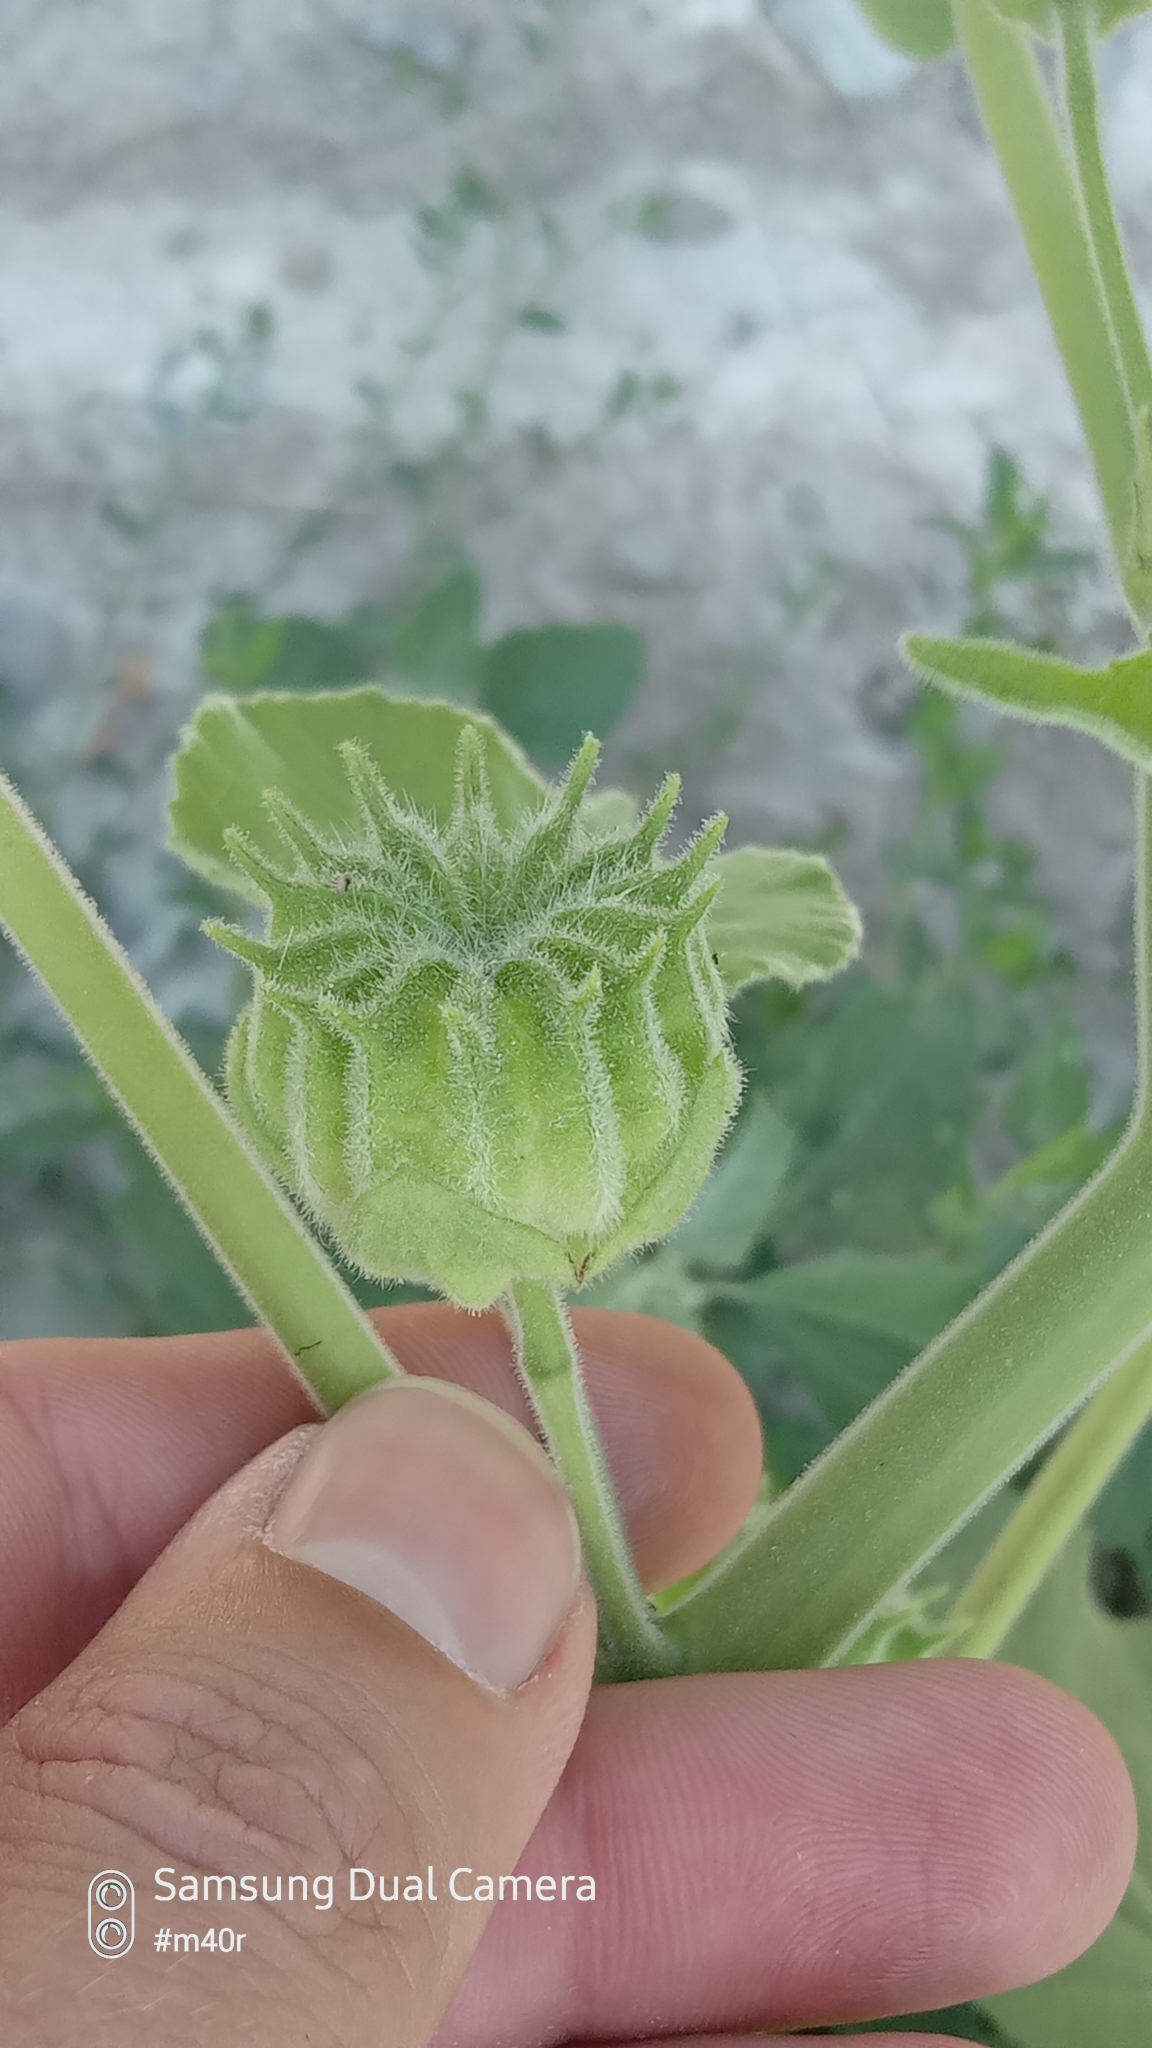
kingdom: Plantae
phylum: Tracheophyta
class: Magnoliopsida
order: Malvales
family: Malvaceae
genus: Abutilon
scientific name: Abutilon theophrasti
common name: Velvetleaf
